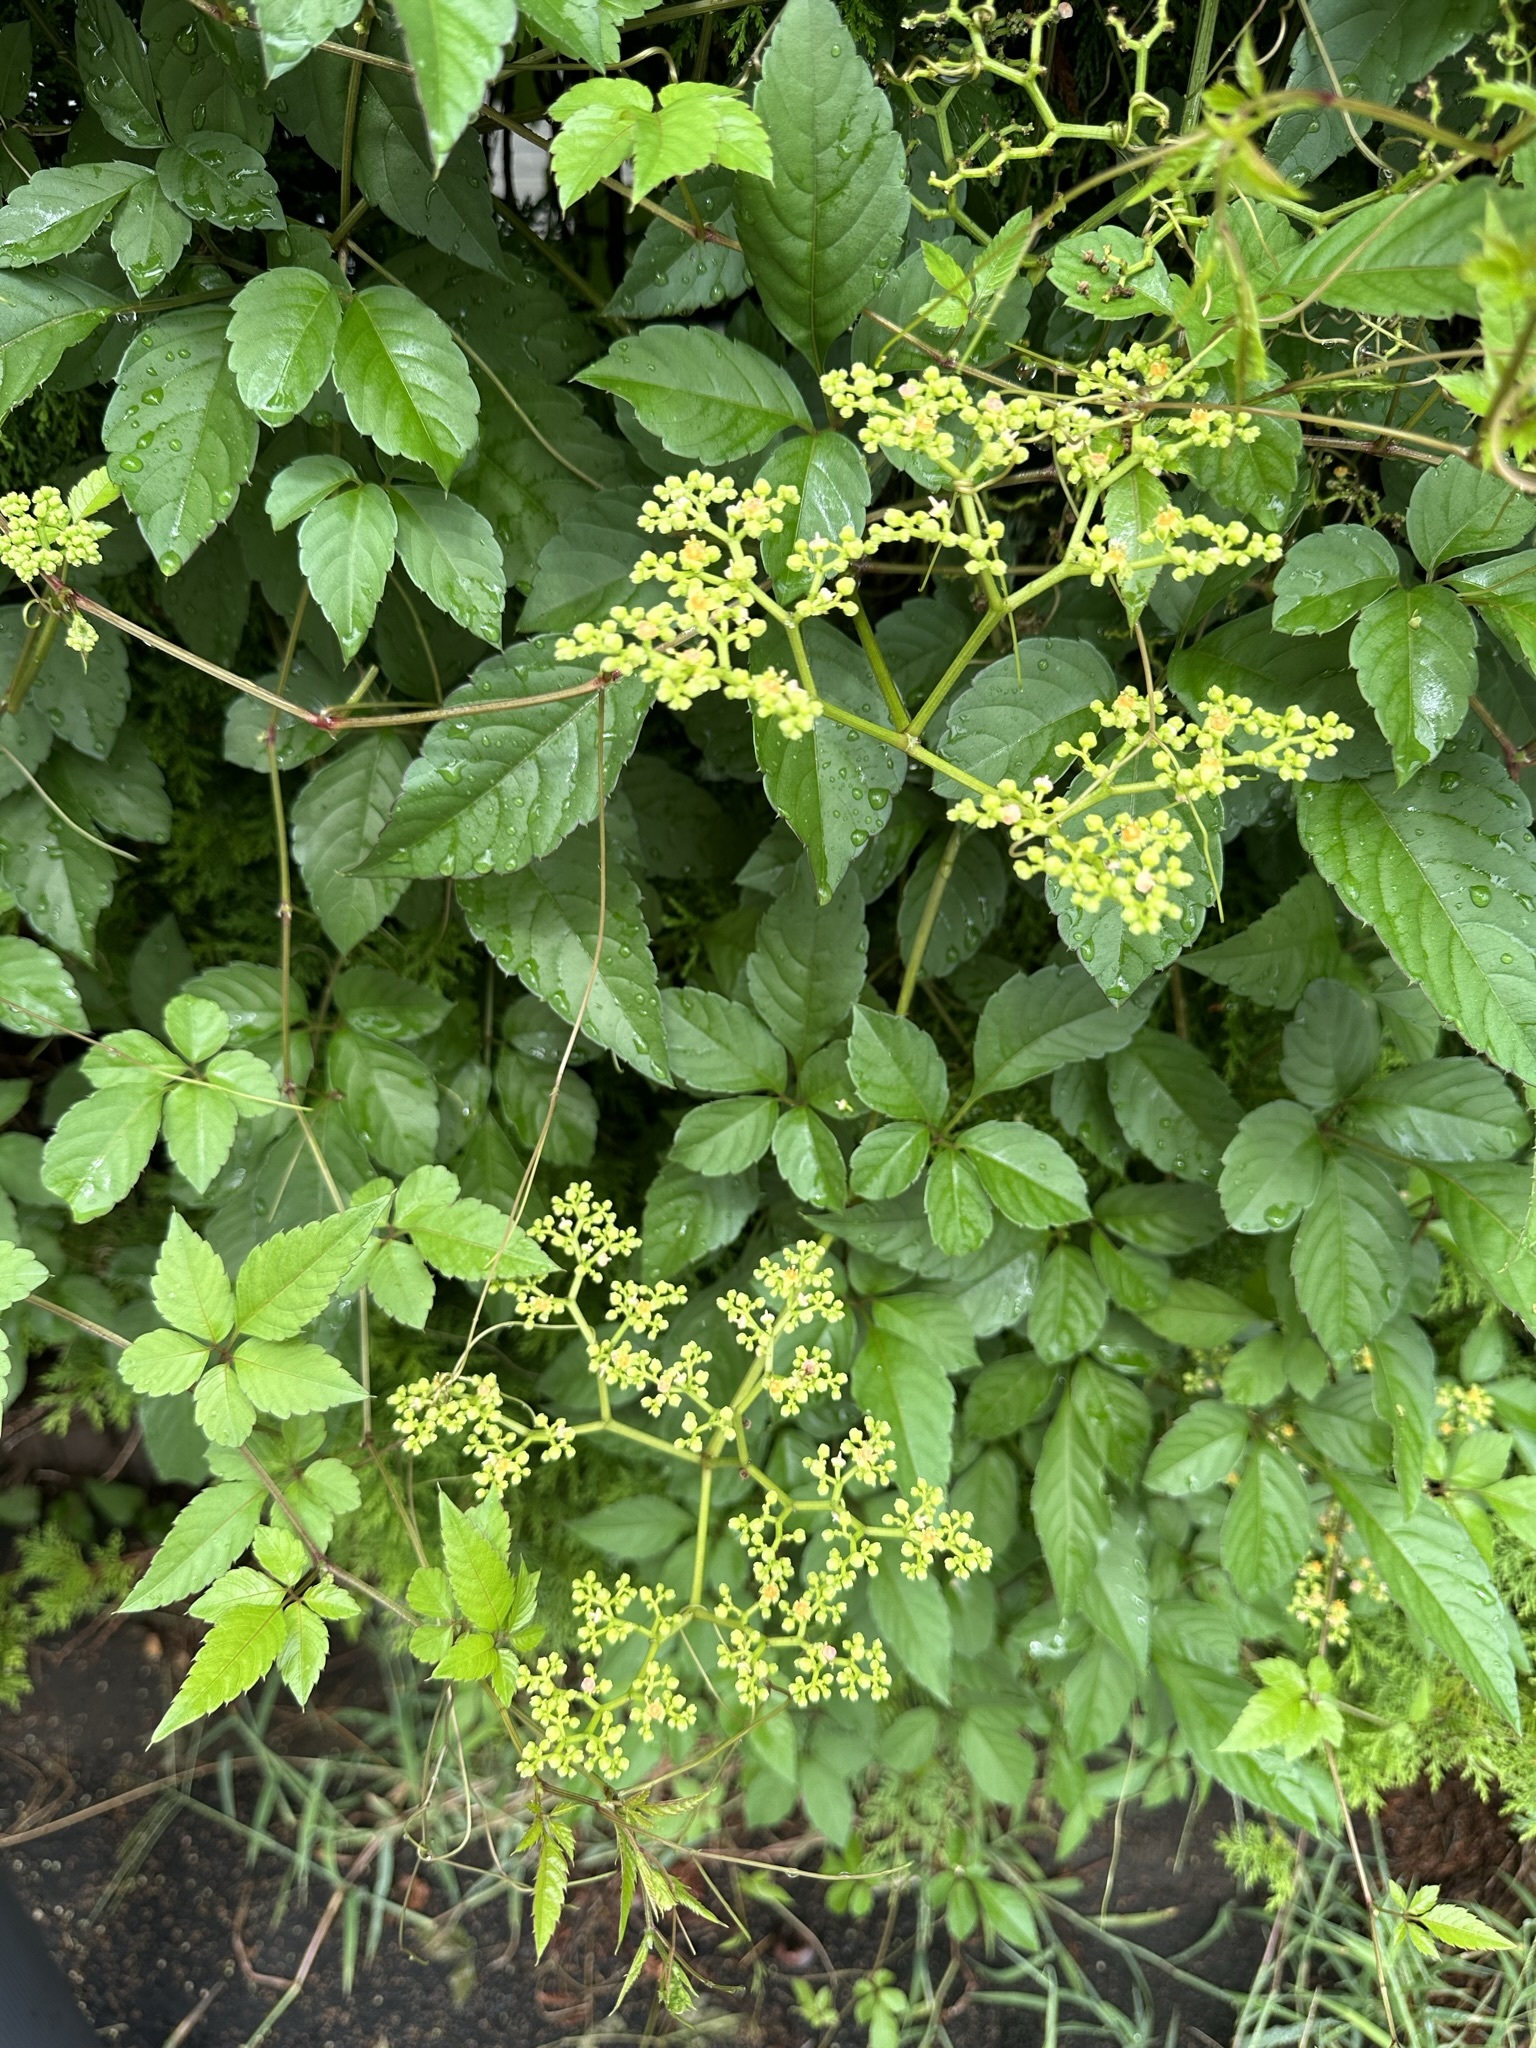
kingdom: Plantae
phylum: Tracheophyta
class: Magnoliopsida
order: Vitales
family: Vitaceae
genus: Causonis
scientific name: Causonis japonica
